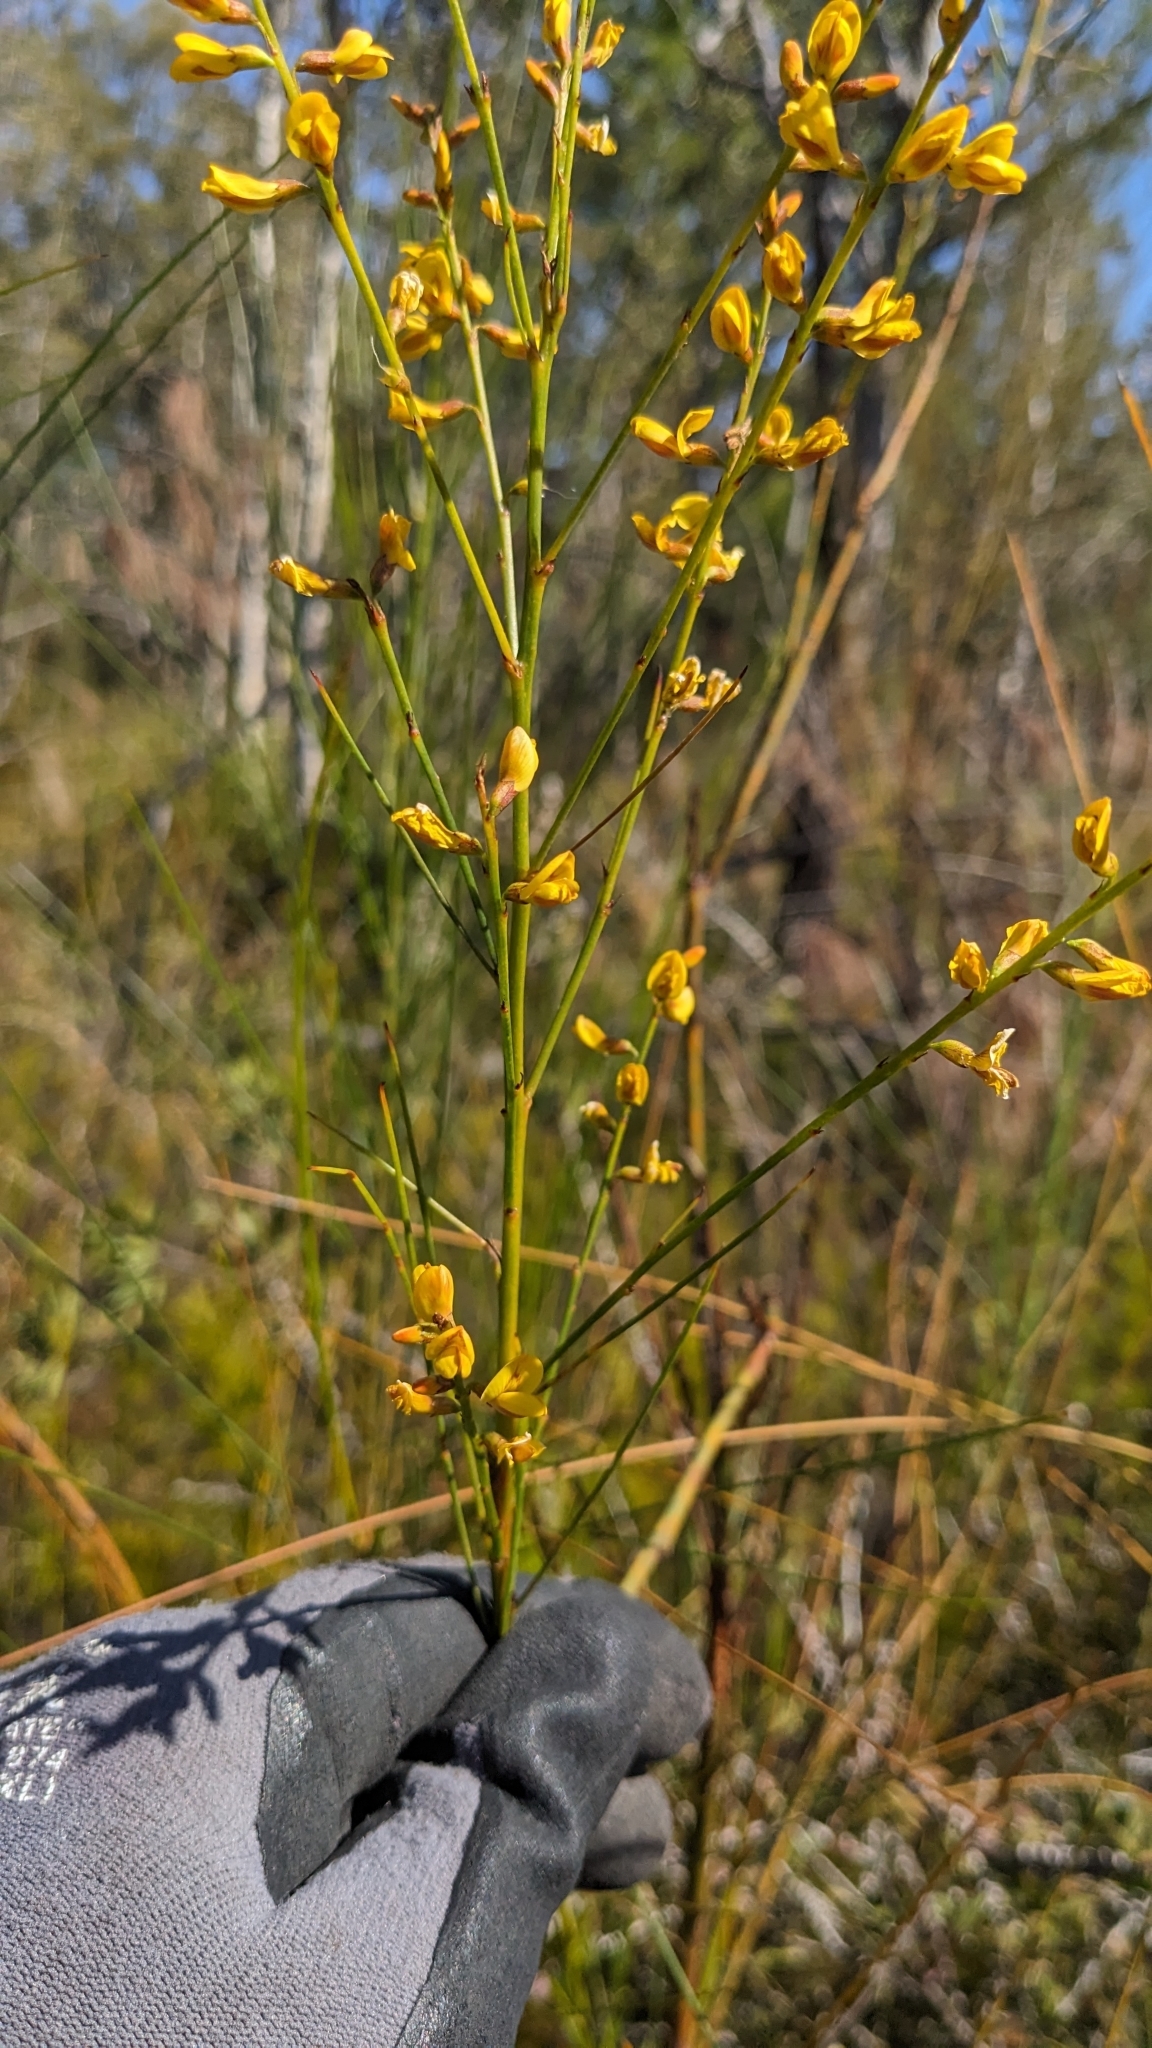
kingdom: Plantae
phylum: Tracheophyta
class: Magnoliopsida
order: Fabales
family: Fabaceae
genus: Viminaria
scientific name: Viminaria juncea
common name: Golden spray
